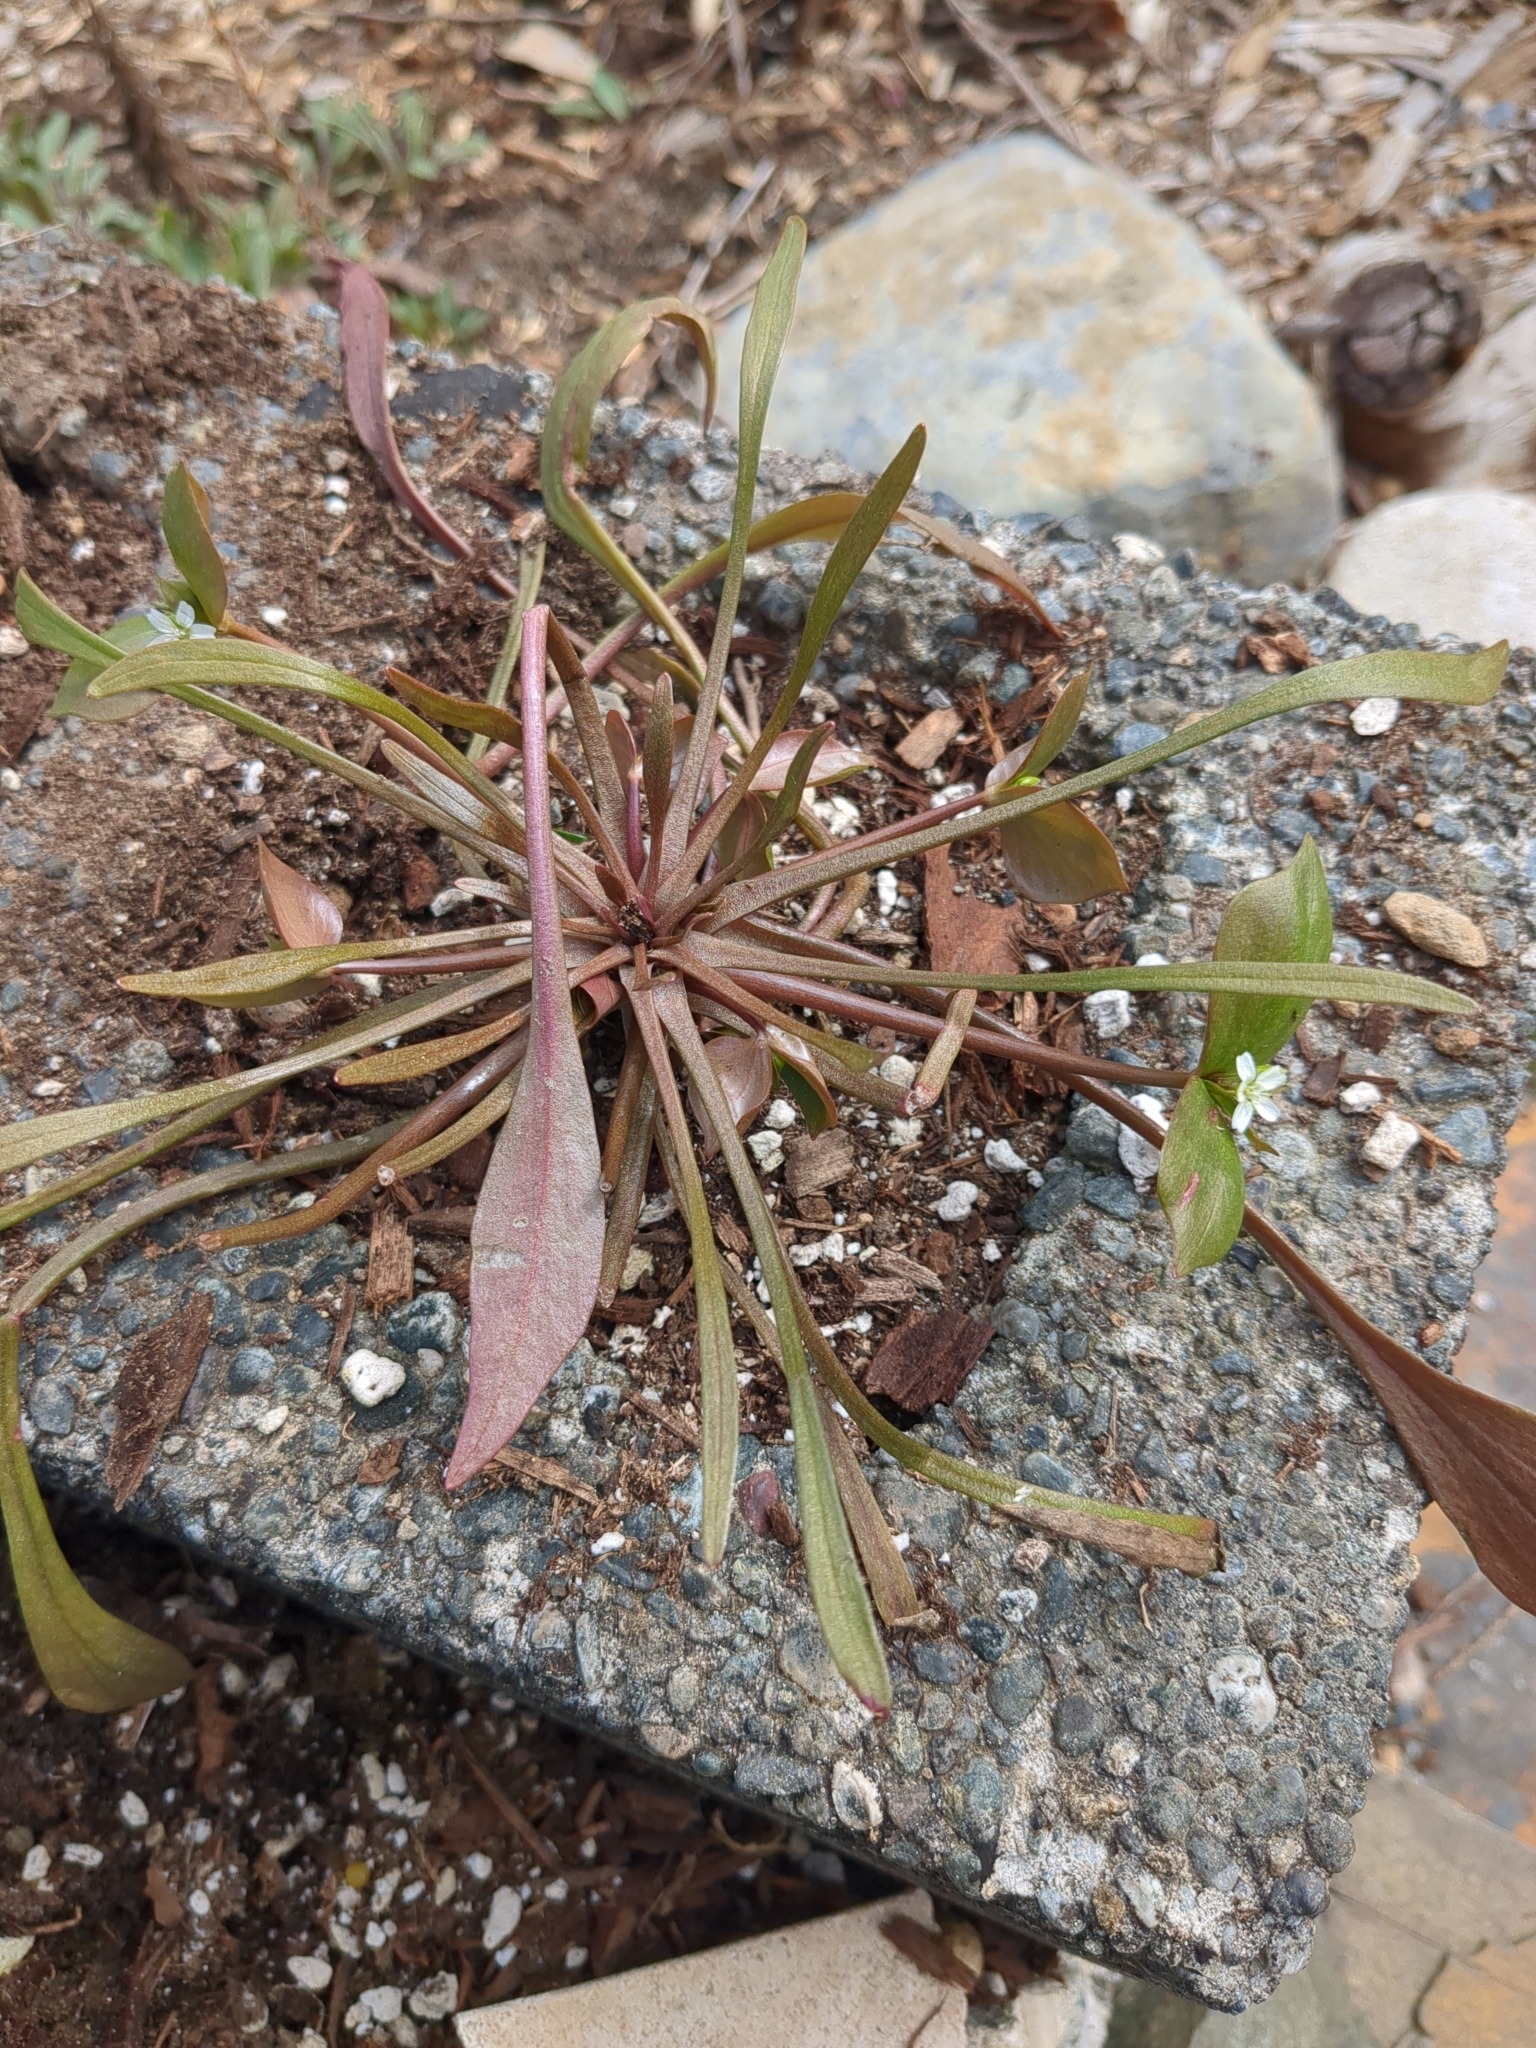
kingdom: Plantae
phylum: Tracheophyta
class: Magnoliopsida
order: Caryophyllales
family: Montiaceae
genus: Claytonia
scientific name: Claytonia parviflora
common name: Indian-lettuce
